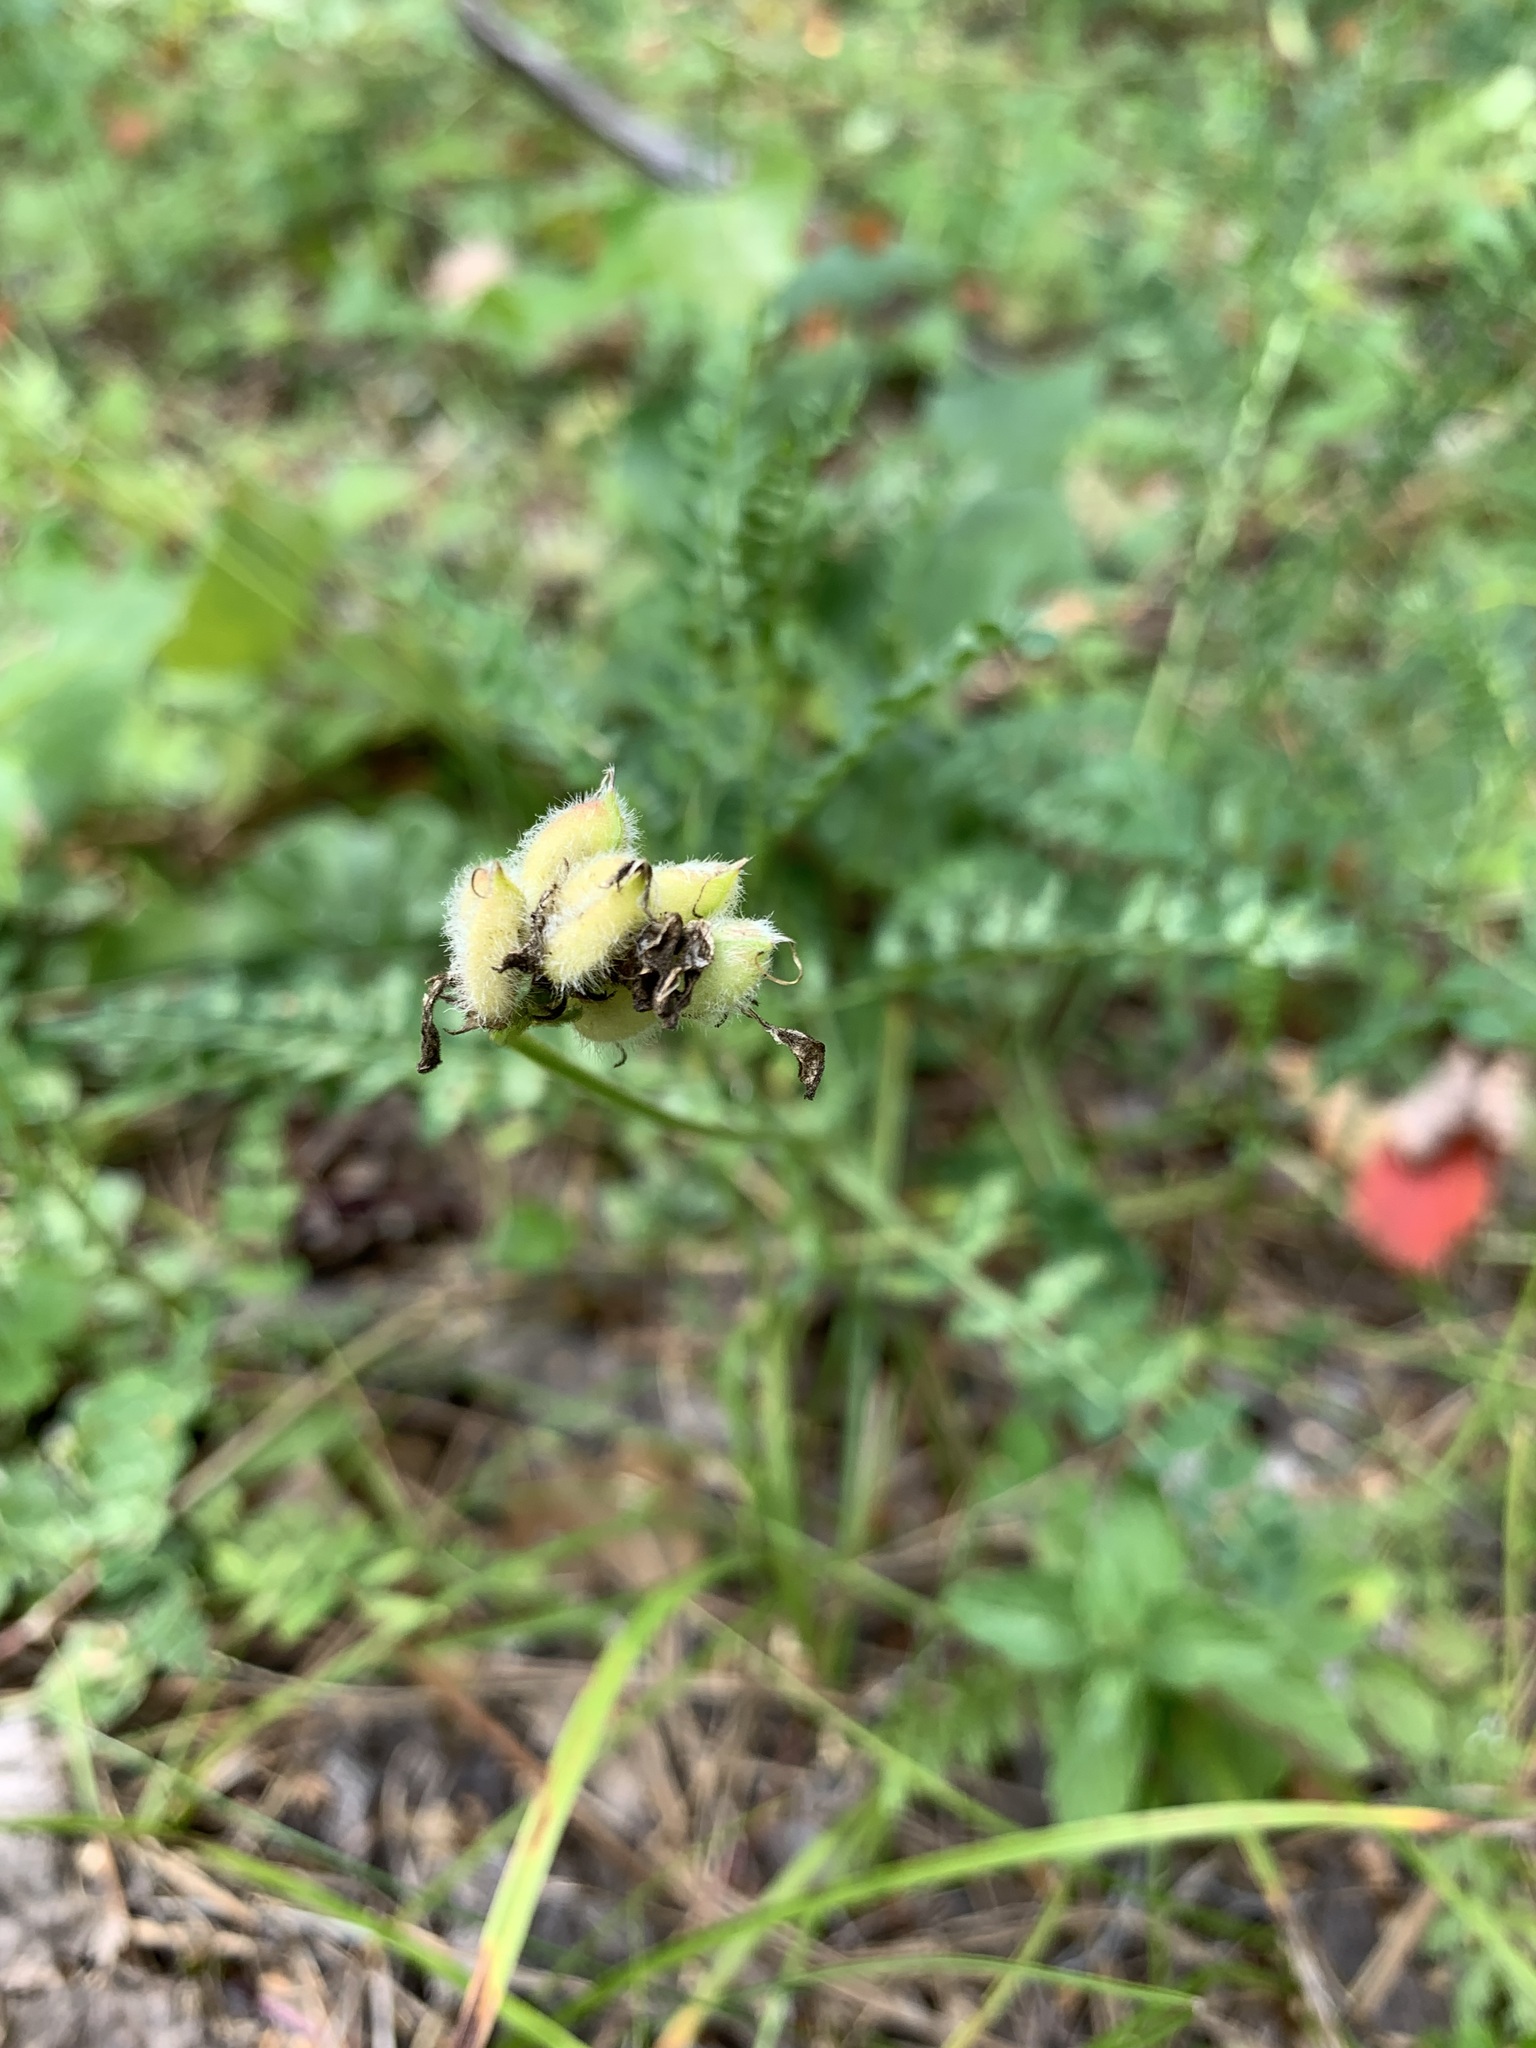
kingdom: Plantae
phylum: Tracheophyta
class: Magnoliopsida
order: Fabales
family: Fabaceae
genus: Astragalus
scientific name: Astragalus danicus
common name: Purple milk-vetch
